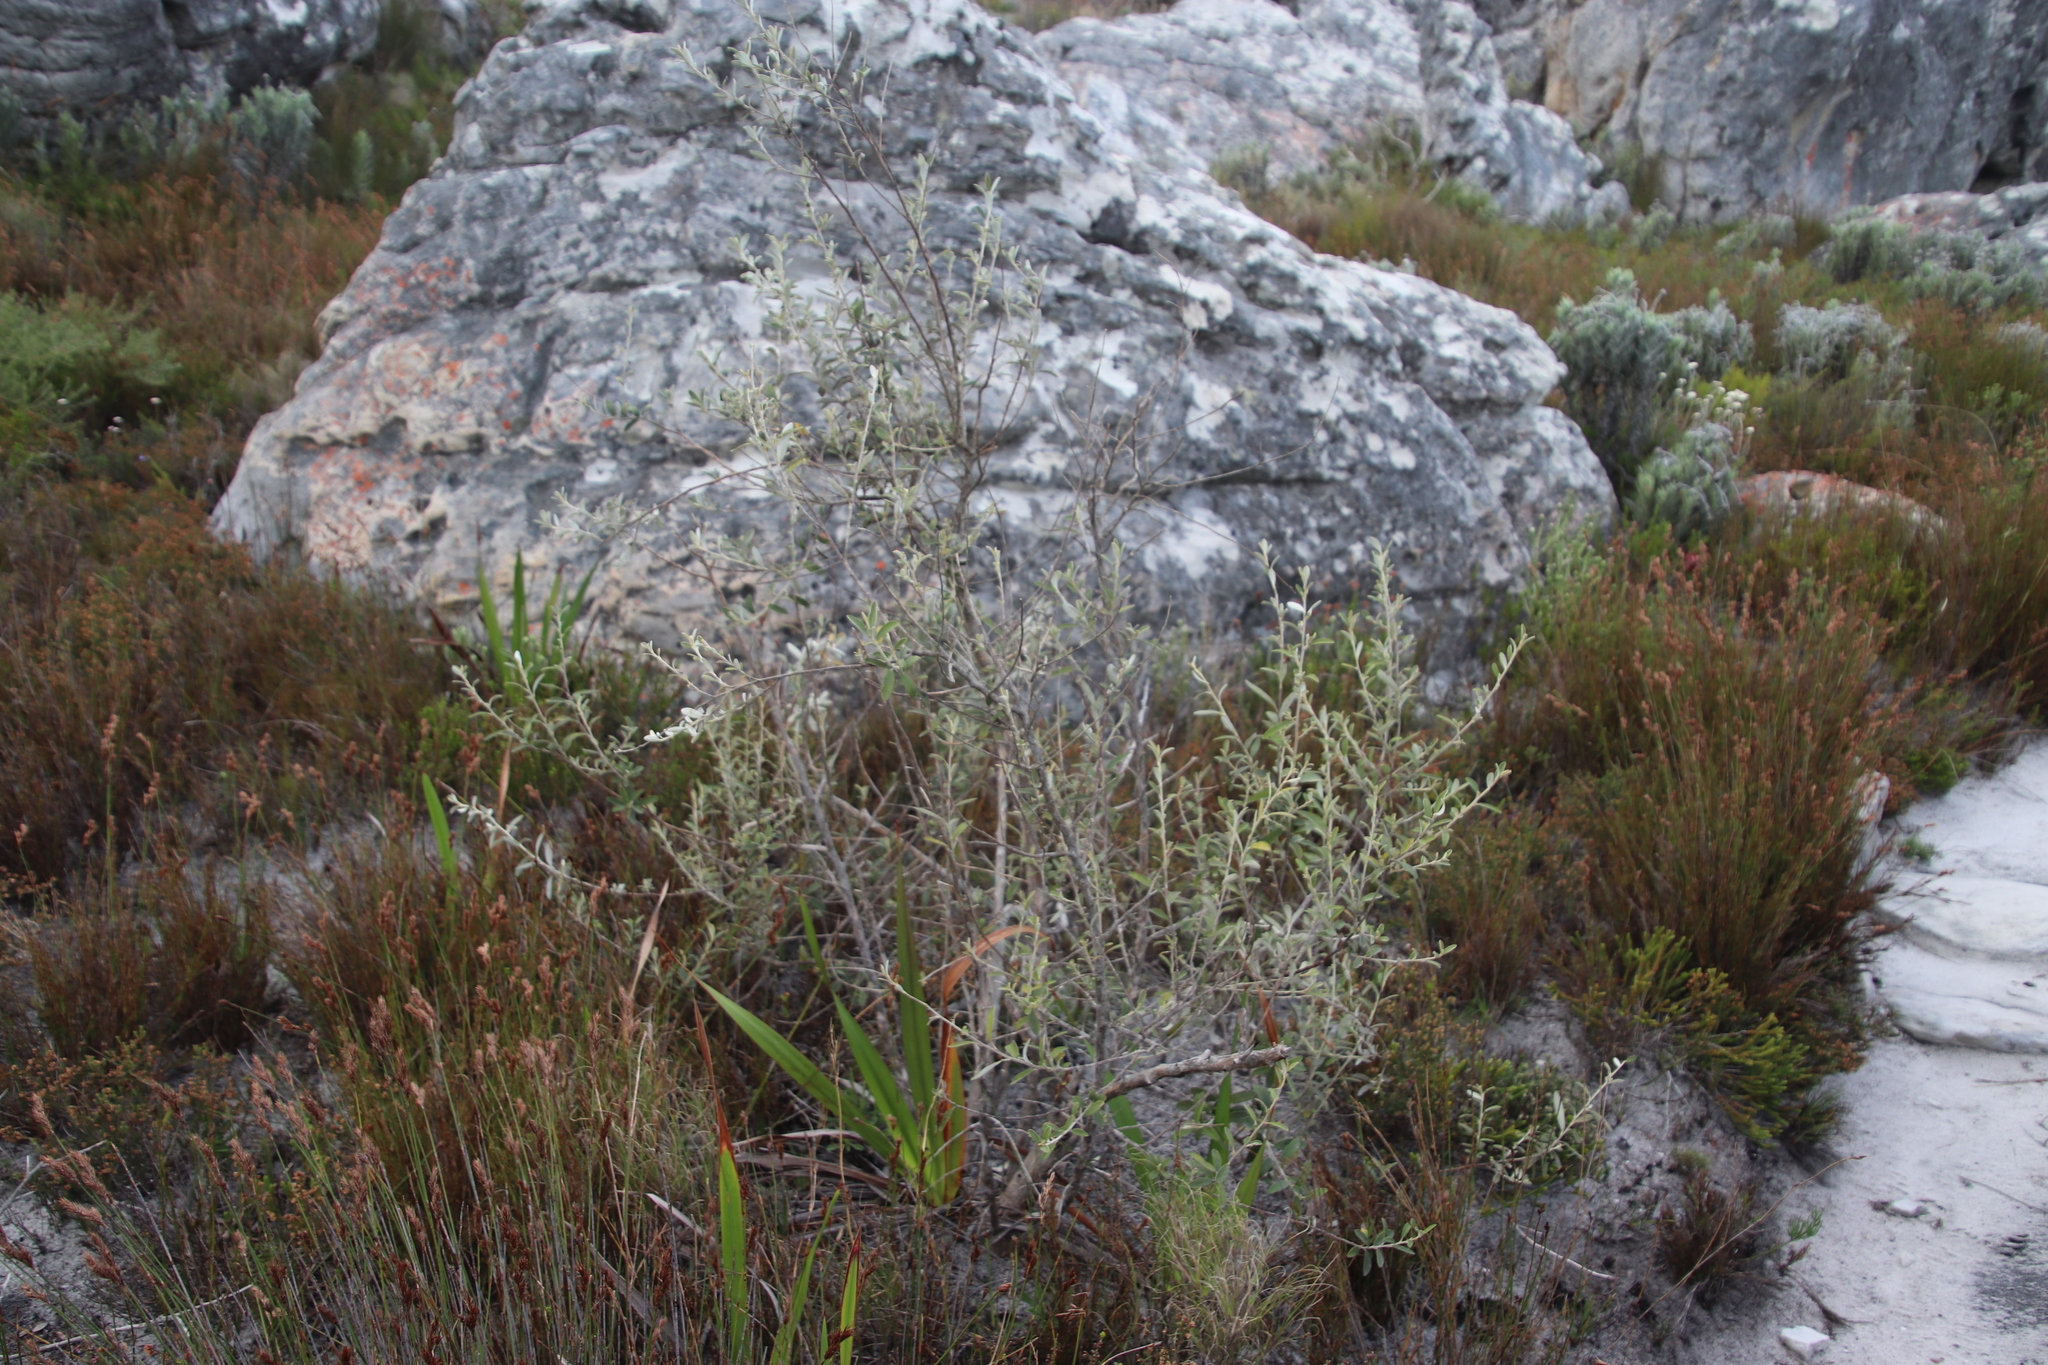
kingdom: Plantae
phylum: Tracheophyta
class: Magnoliopsida
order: Asterales
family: Asteraceae
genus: Tarchonanthus
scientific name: Tarchonanthus littoralis
